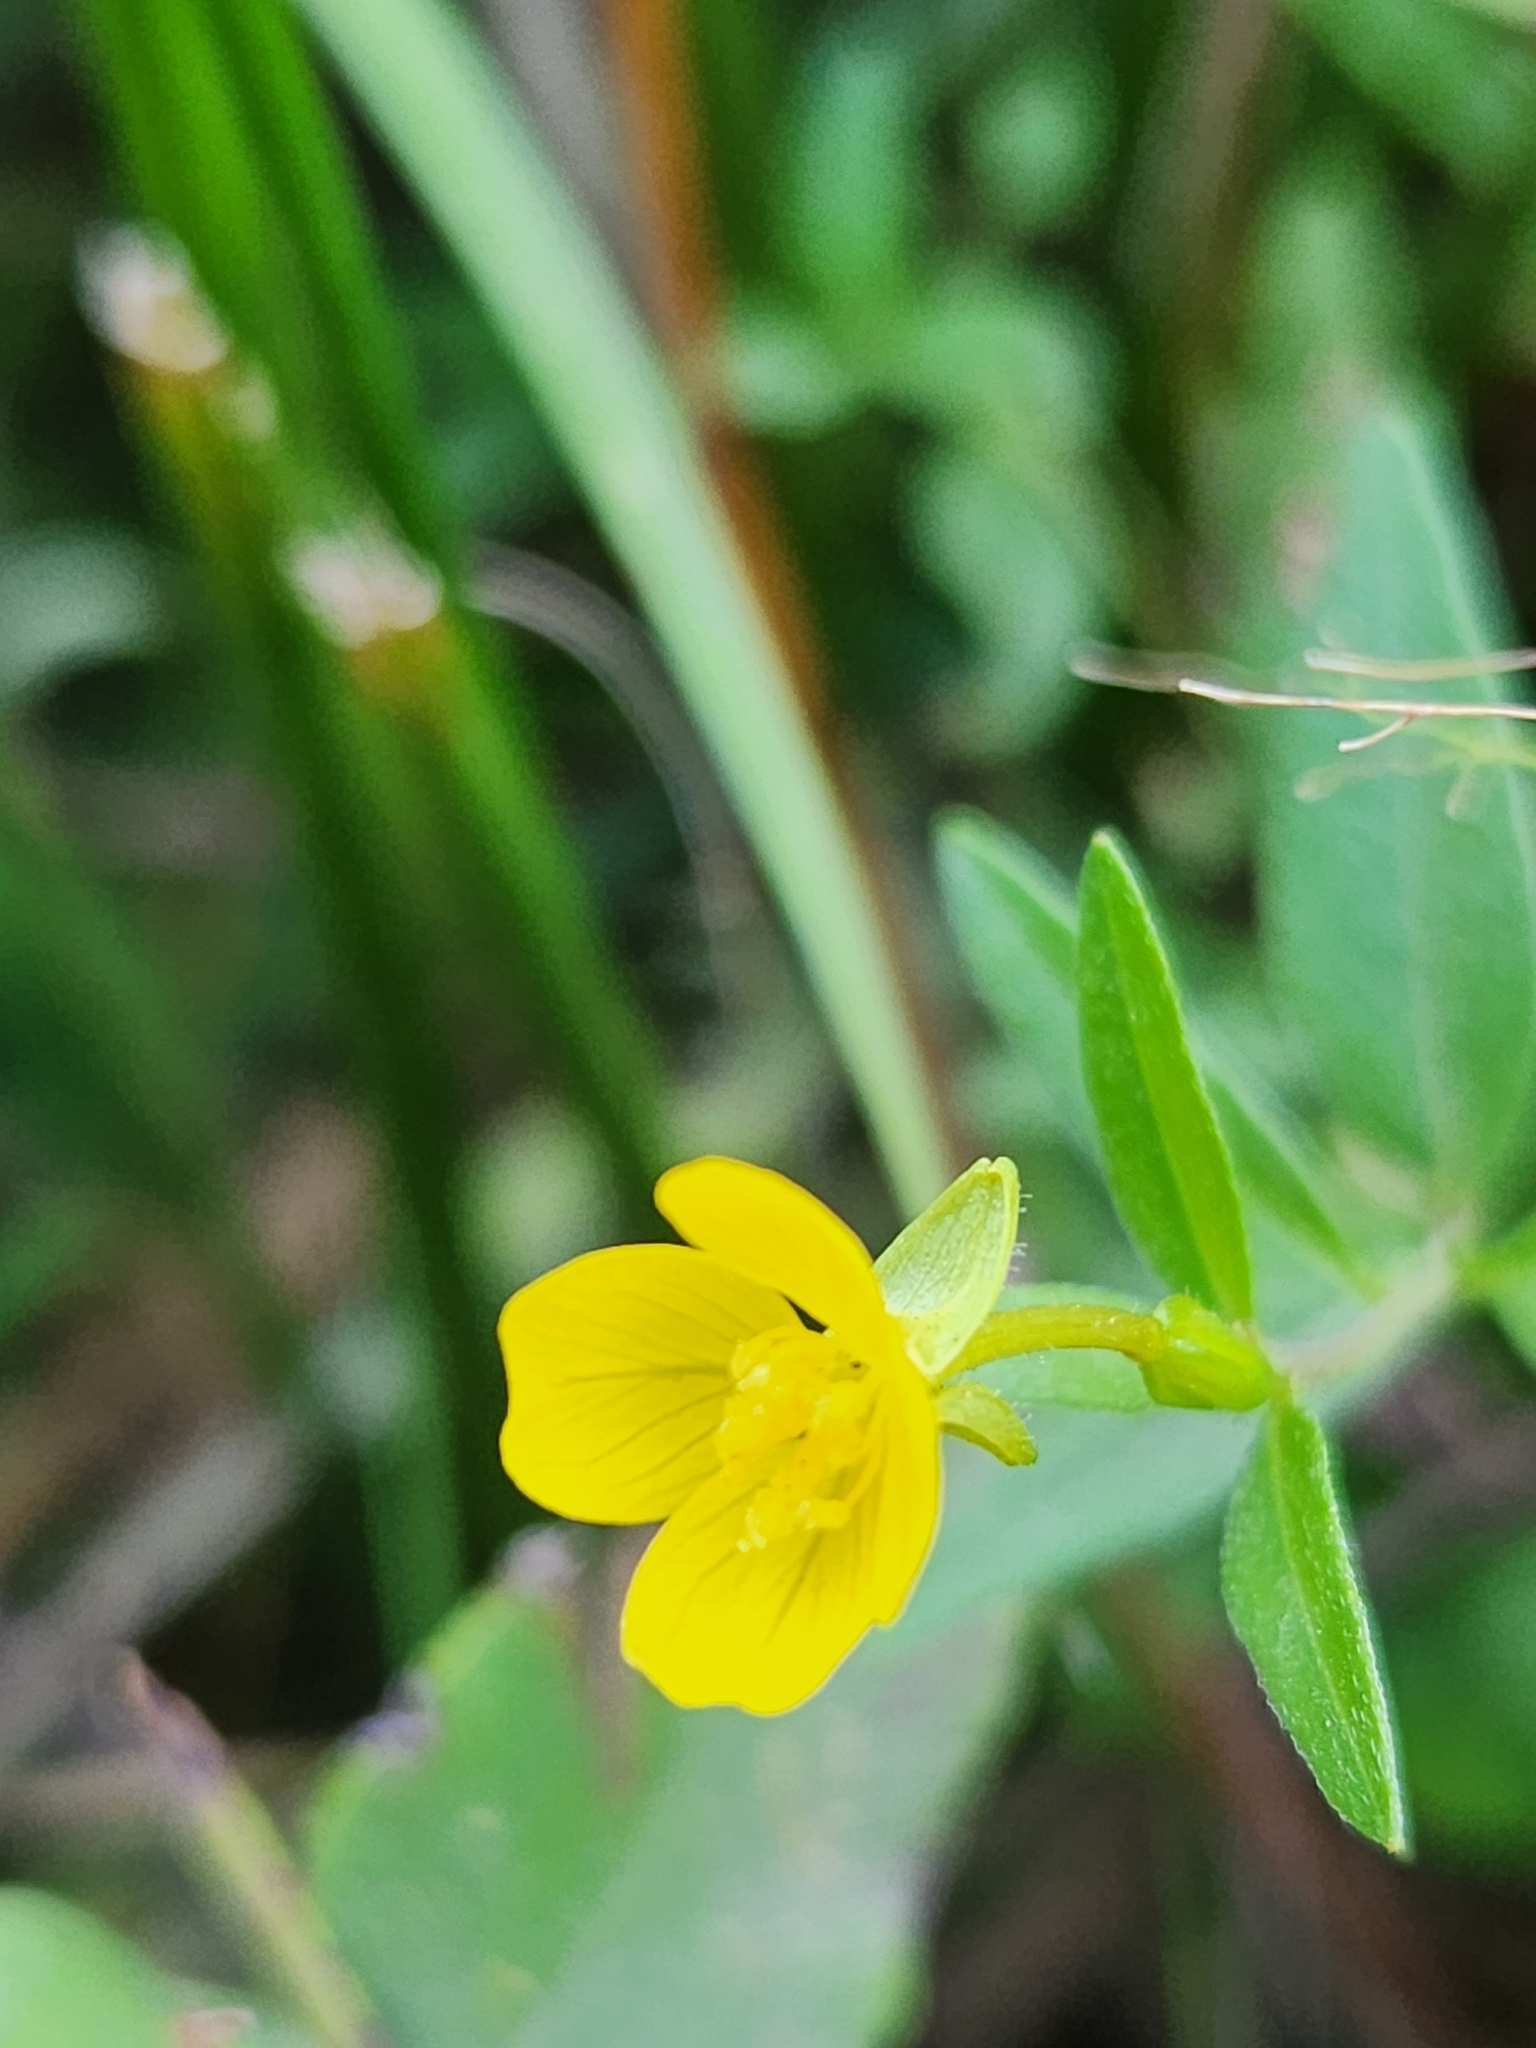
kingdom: Plantae
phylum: Tracheophyta
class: Magnoliopsida
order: Myrtales
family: Onagraceae
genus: Oenothera
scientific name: Oenothera perennis
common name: Small sundrops
